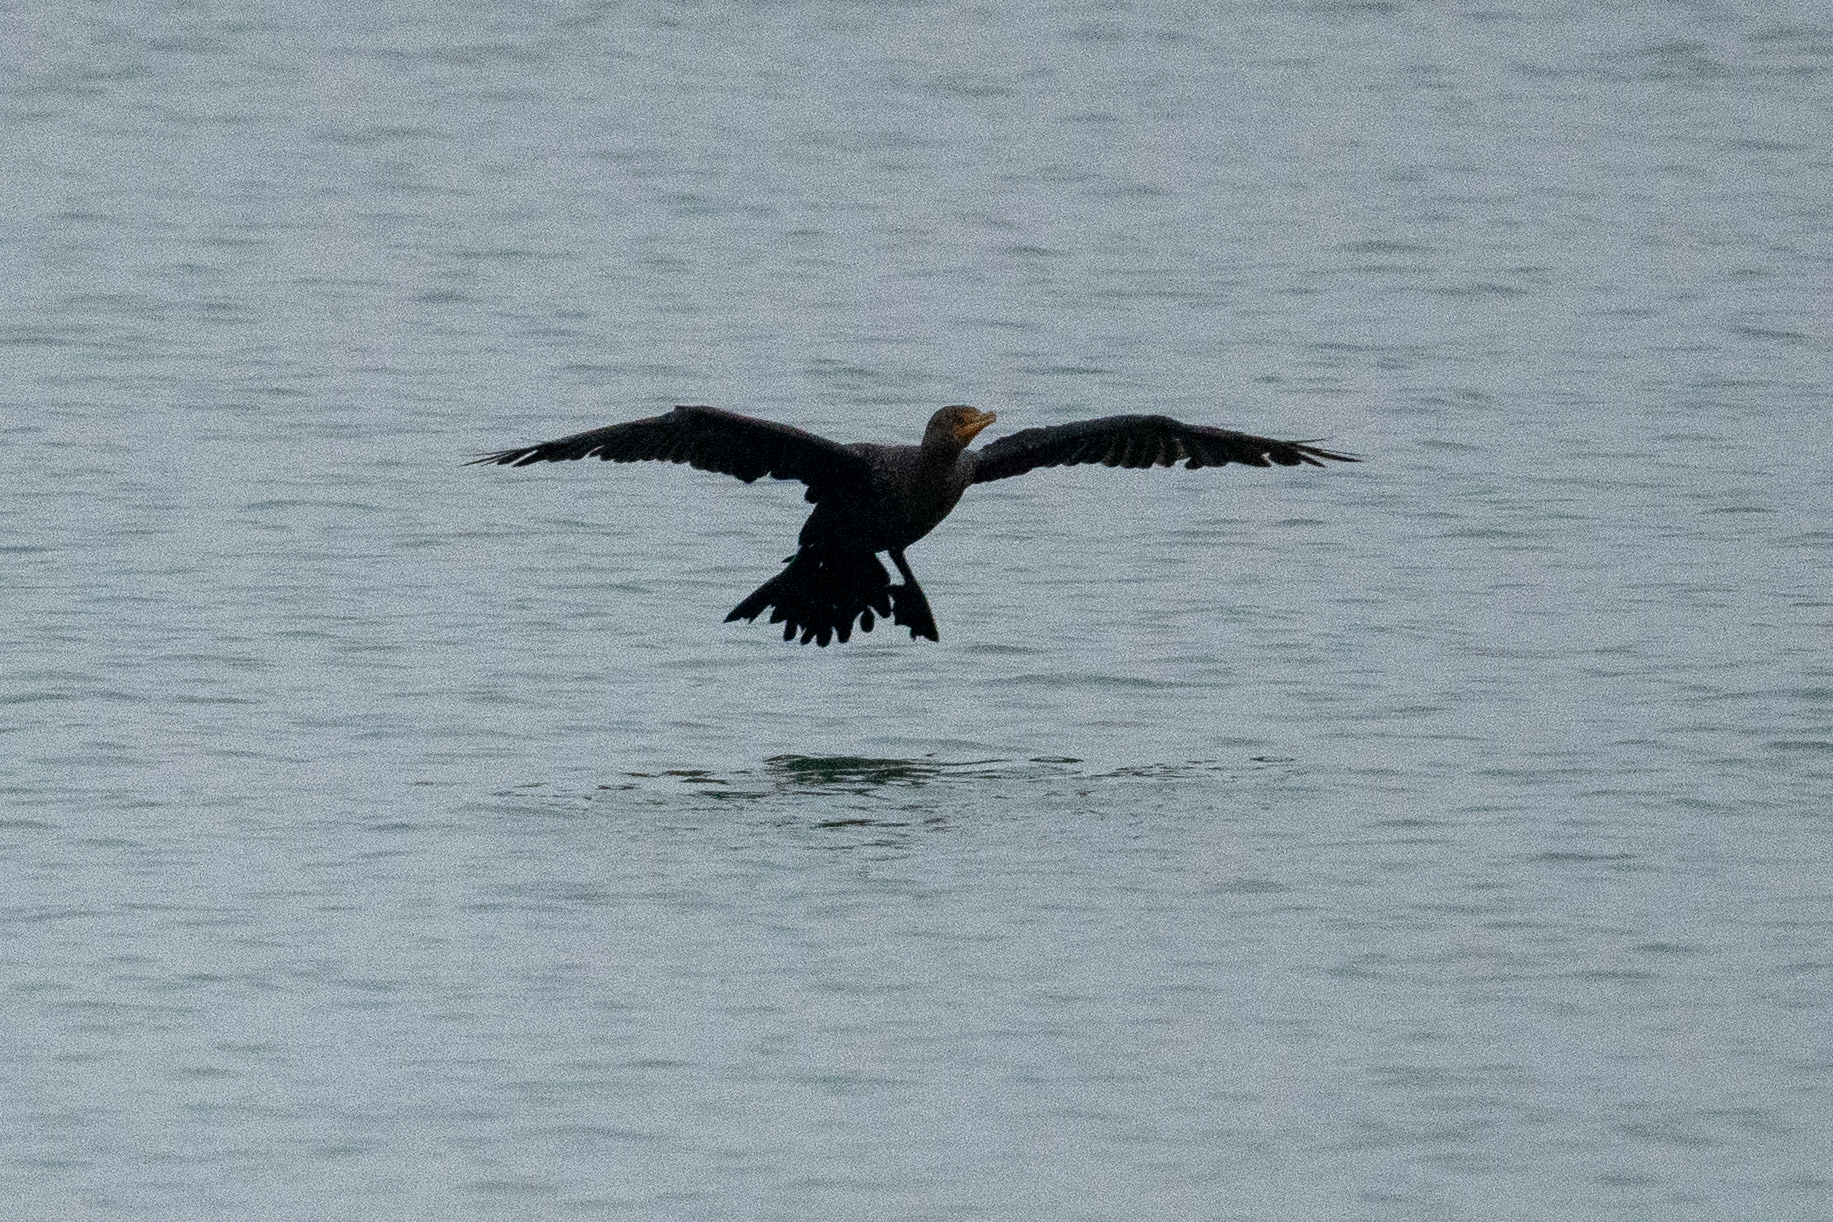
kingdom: Animalia
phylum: Chordata
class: Aves
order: Suliformes
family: Phalacrocoracidae
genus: Phalacrocorax
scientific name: Phalacrocorax auritus
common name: Double-crested cormorant
